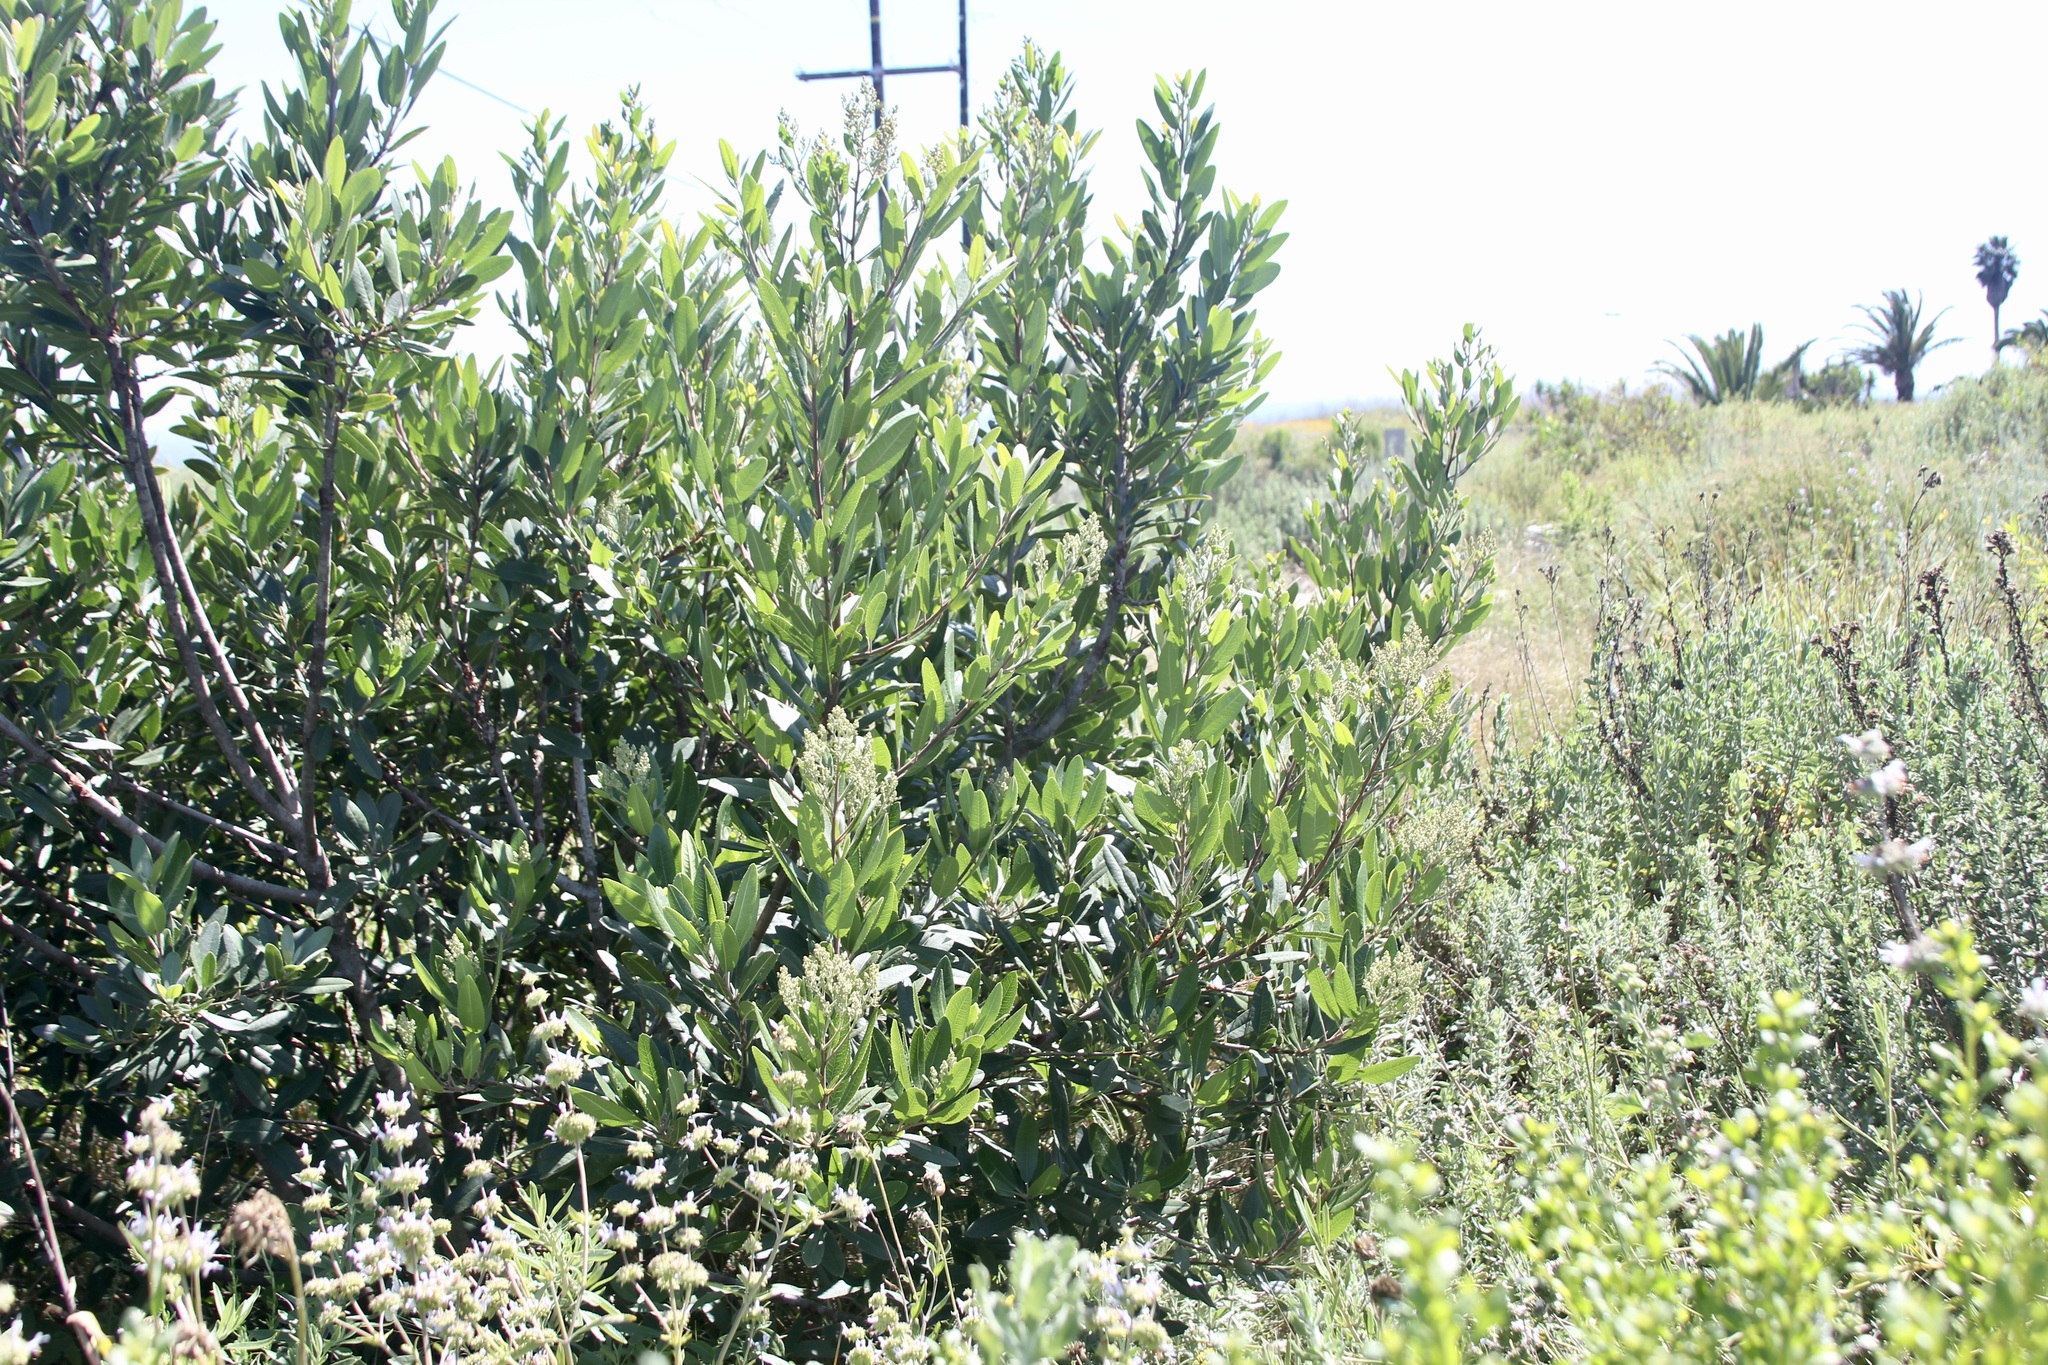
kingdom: Plantae
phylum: Tracheophyta
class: Magnoliopsida
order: Rosales
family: Rosaceae
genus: Heteromeles
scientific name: Heteromeles arbutifolia
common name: California-holly
